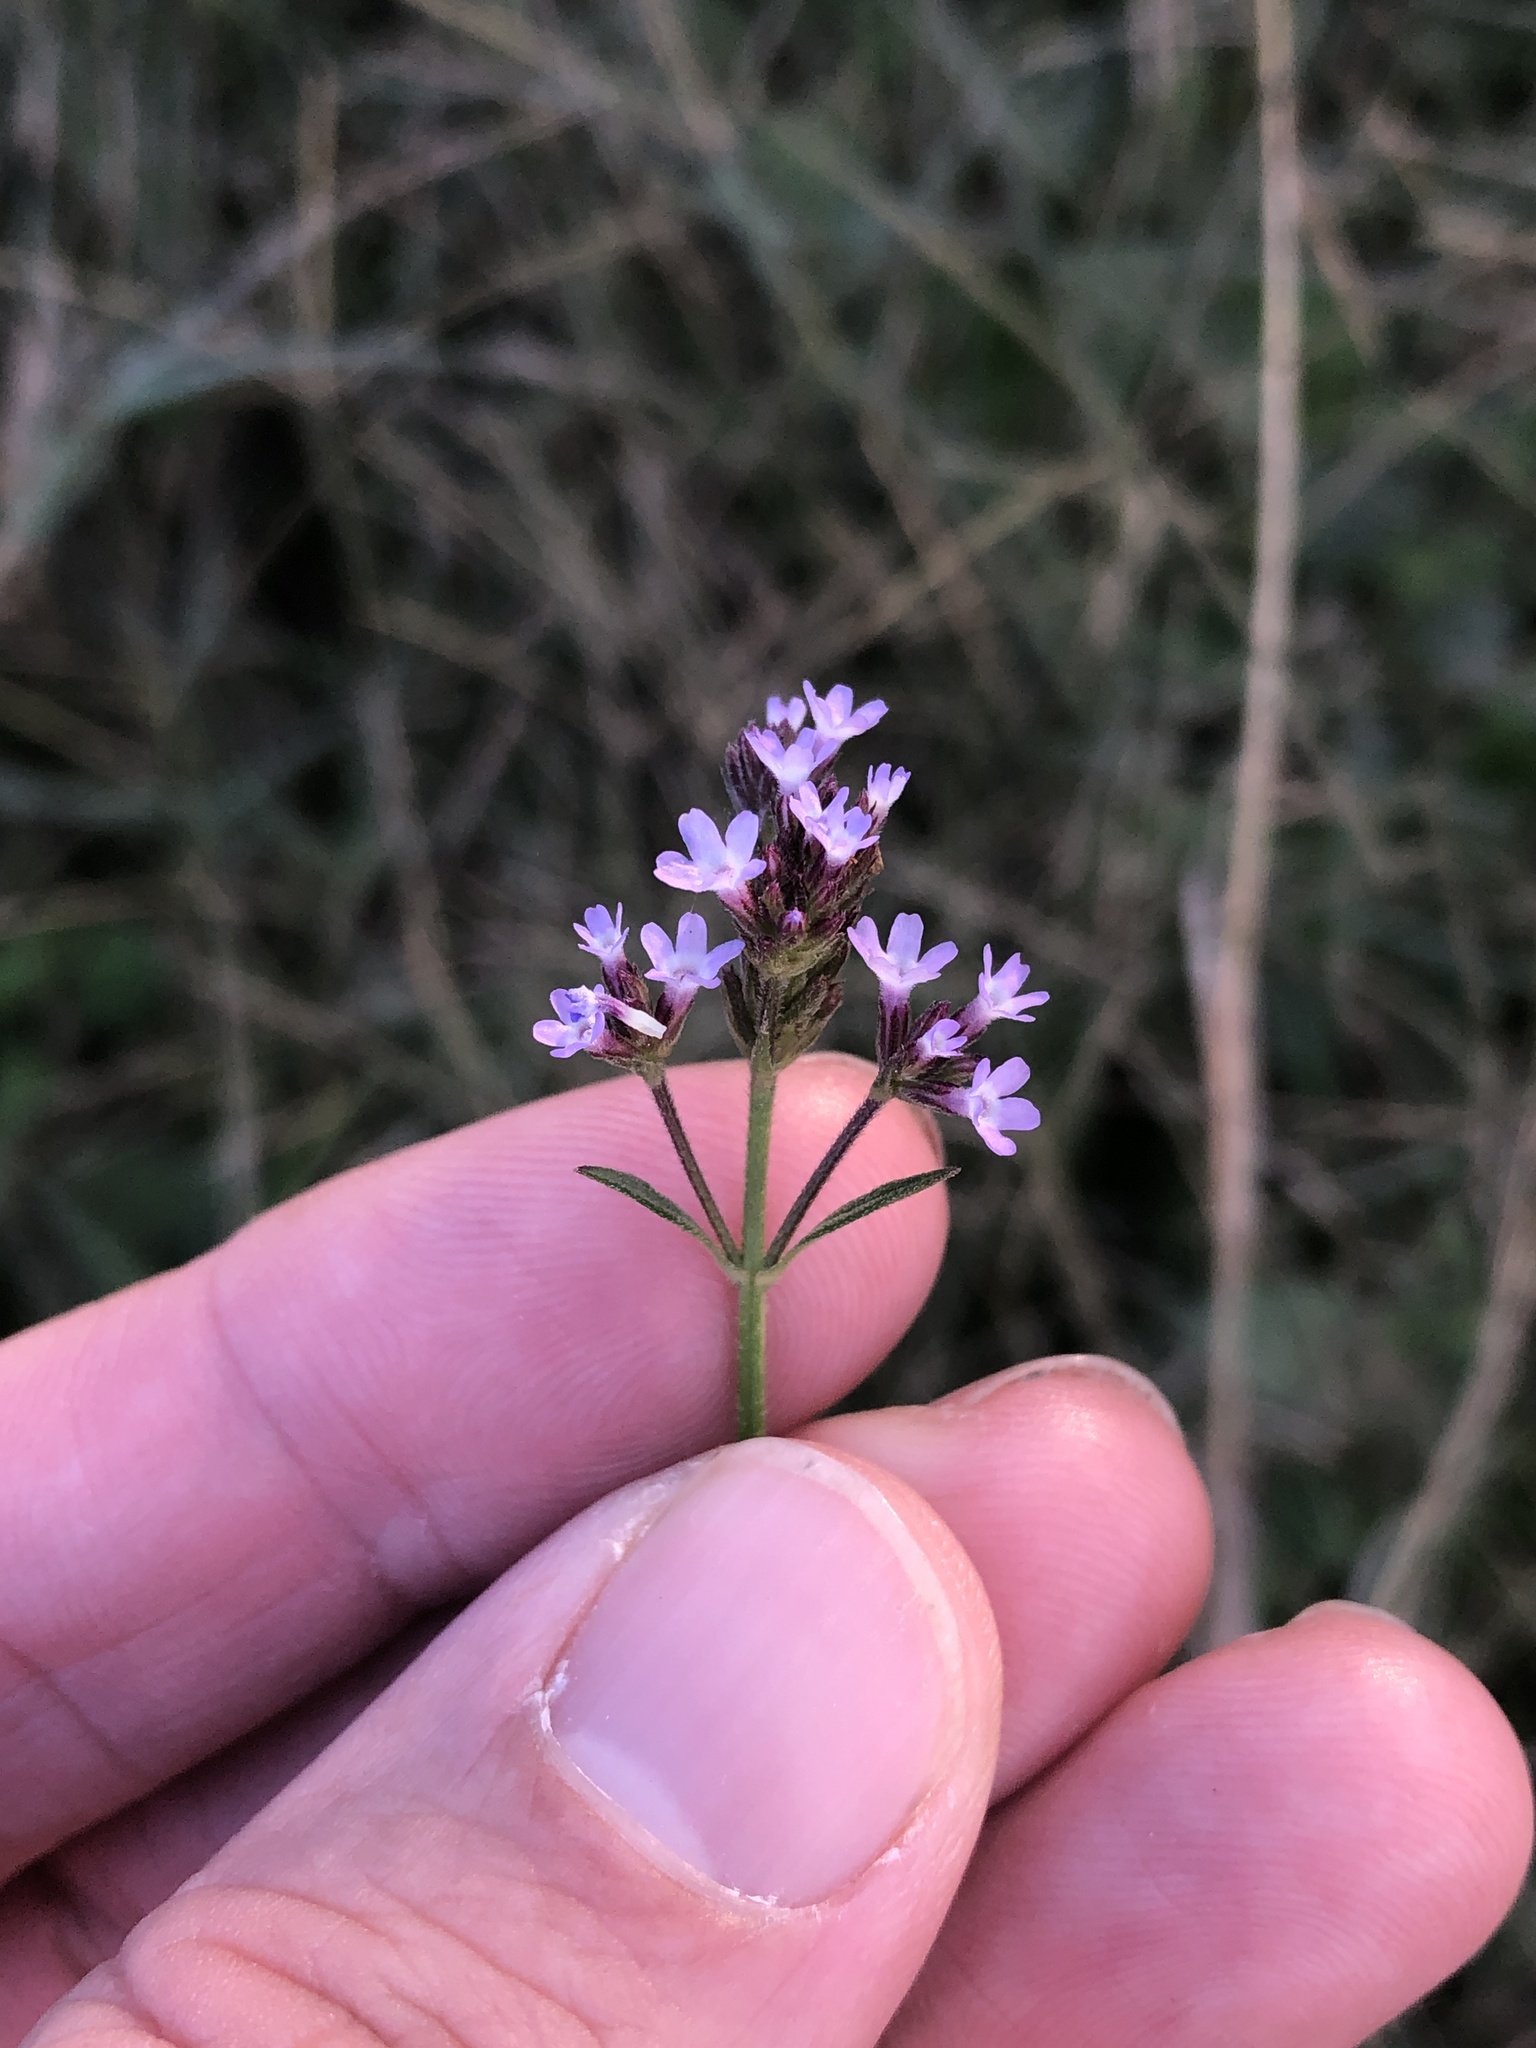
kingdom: Plantae
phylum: Tracheophyta
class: Magnoliopsida
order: Lamiales
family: Verbenaceae
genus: Verbena
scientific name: Verbena brasiliensis
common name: Brazilian vervain
